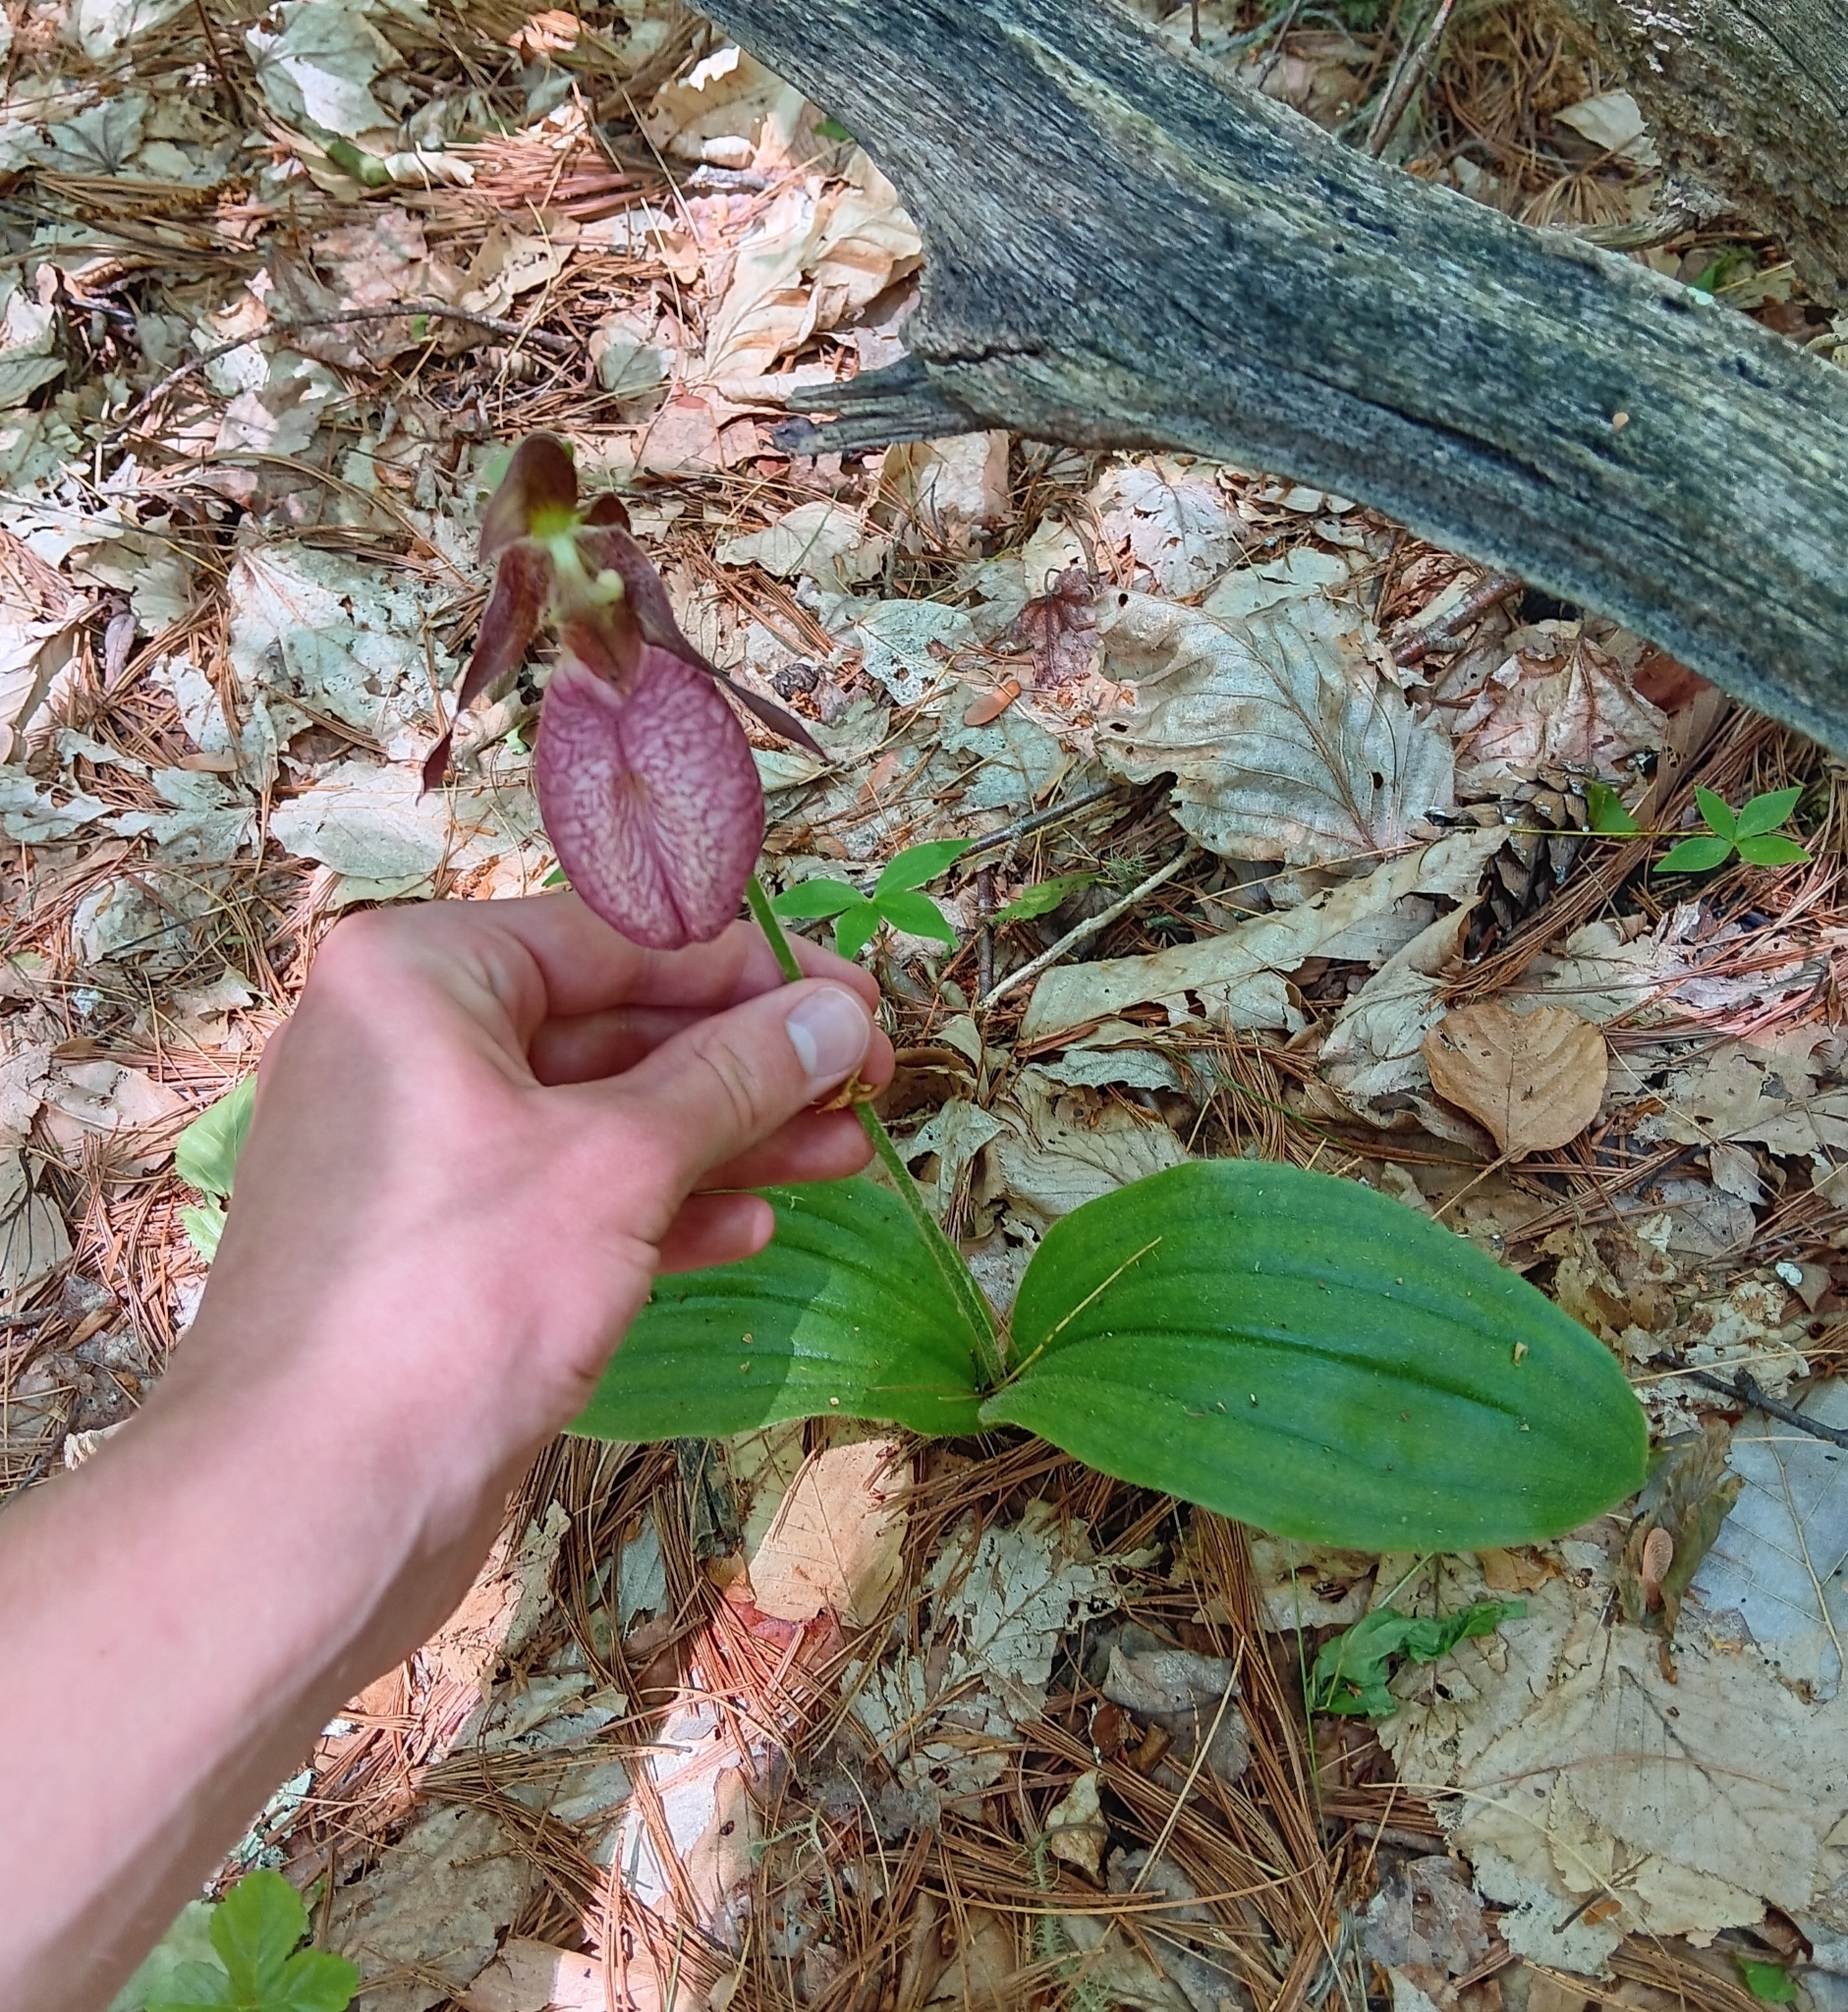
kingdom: Plantae
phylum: Tracheophyta
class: Liliopsida
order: Asparagales
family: Orchidaceae
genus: Cypripedium
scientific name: Cypripedium acaule
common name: Pink lady's-slipper
